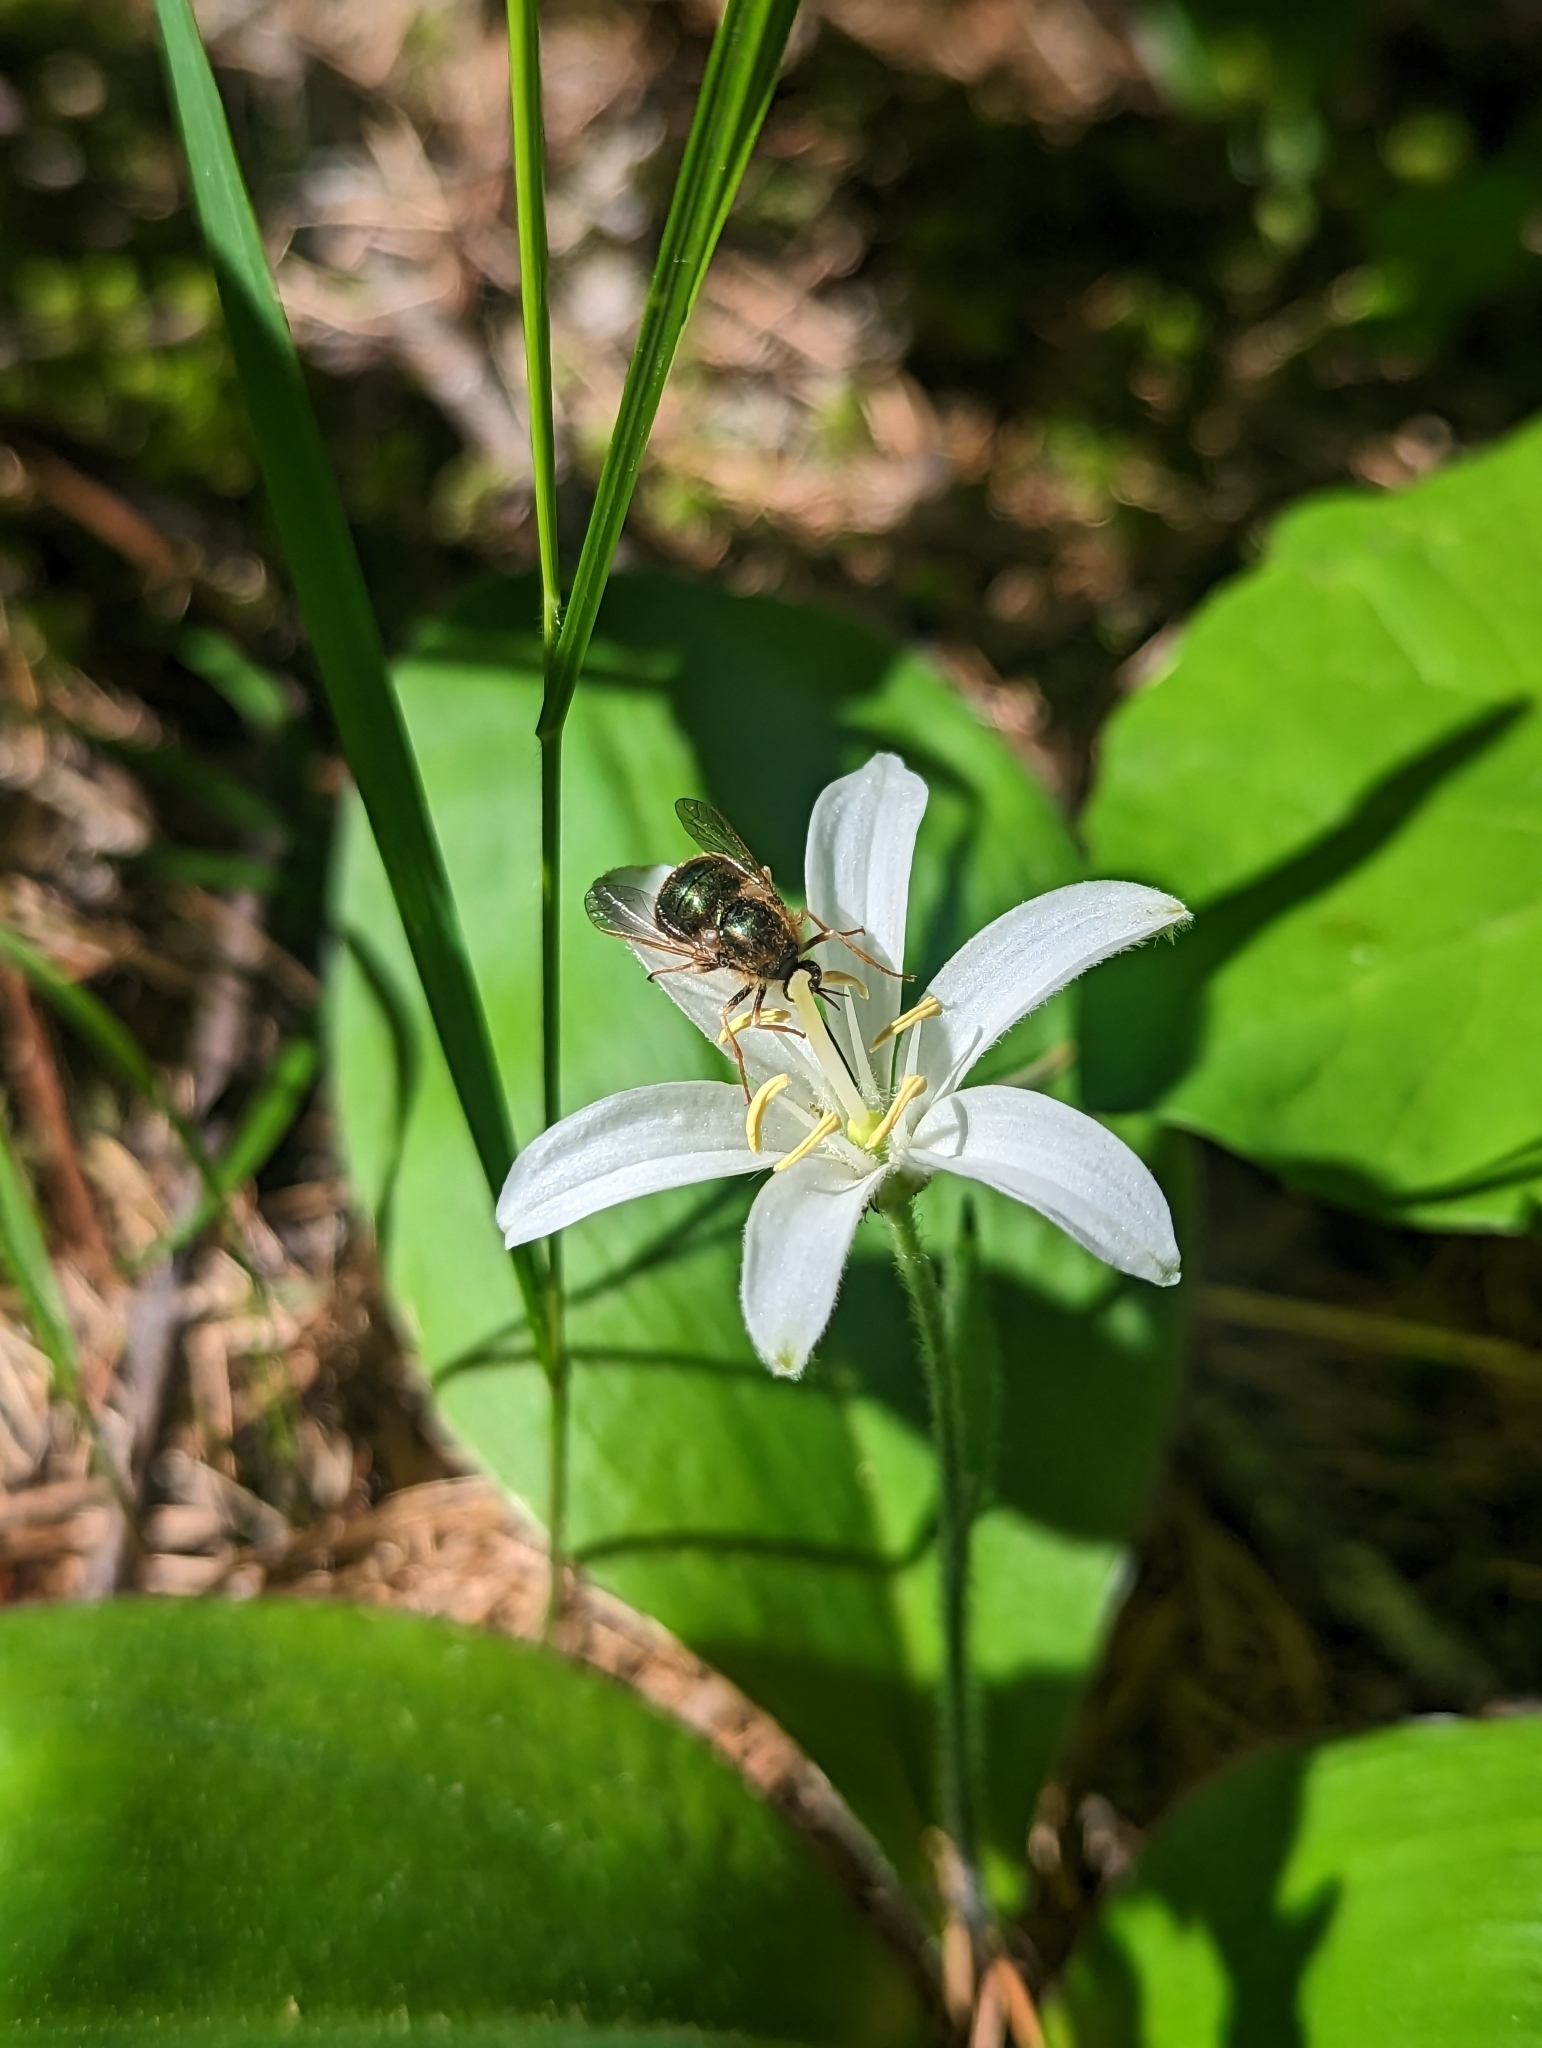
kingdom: Animalia
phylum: Arthropoda
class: Insecta
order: Diptera
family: Acroceridae
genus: Eulonchus
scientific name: Eulonchus tristis
